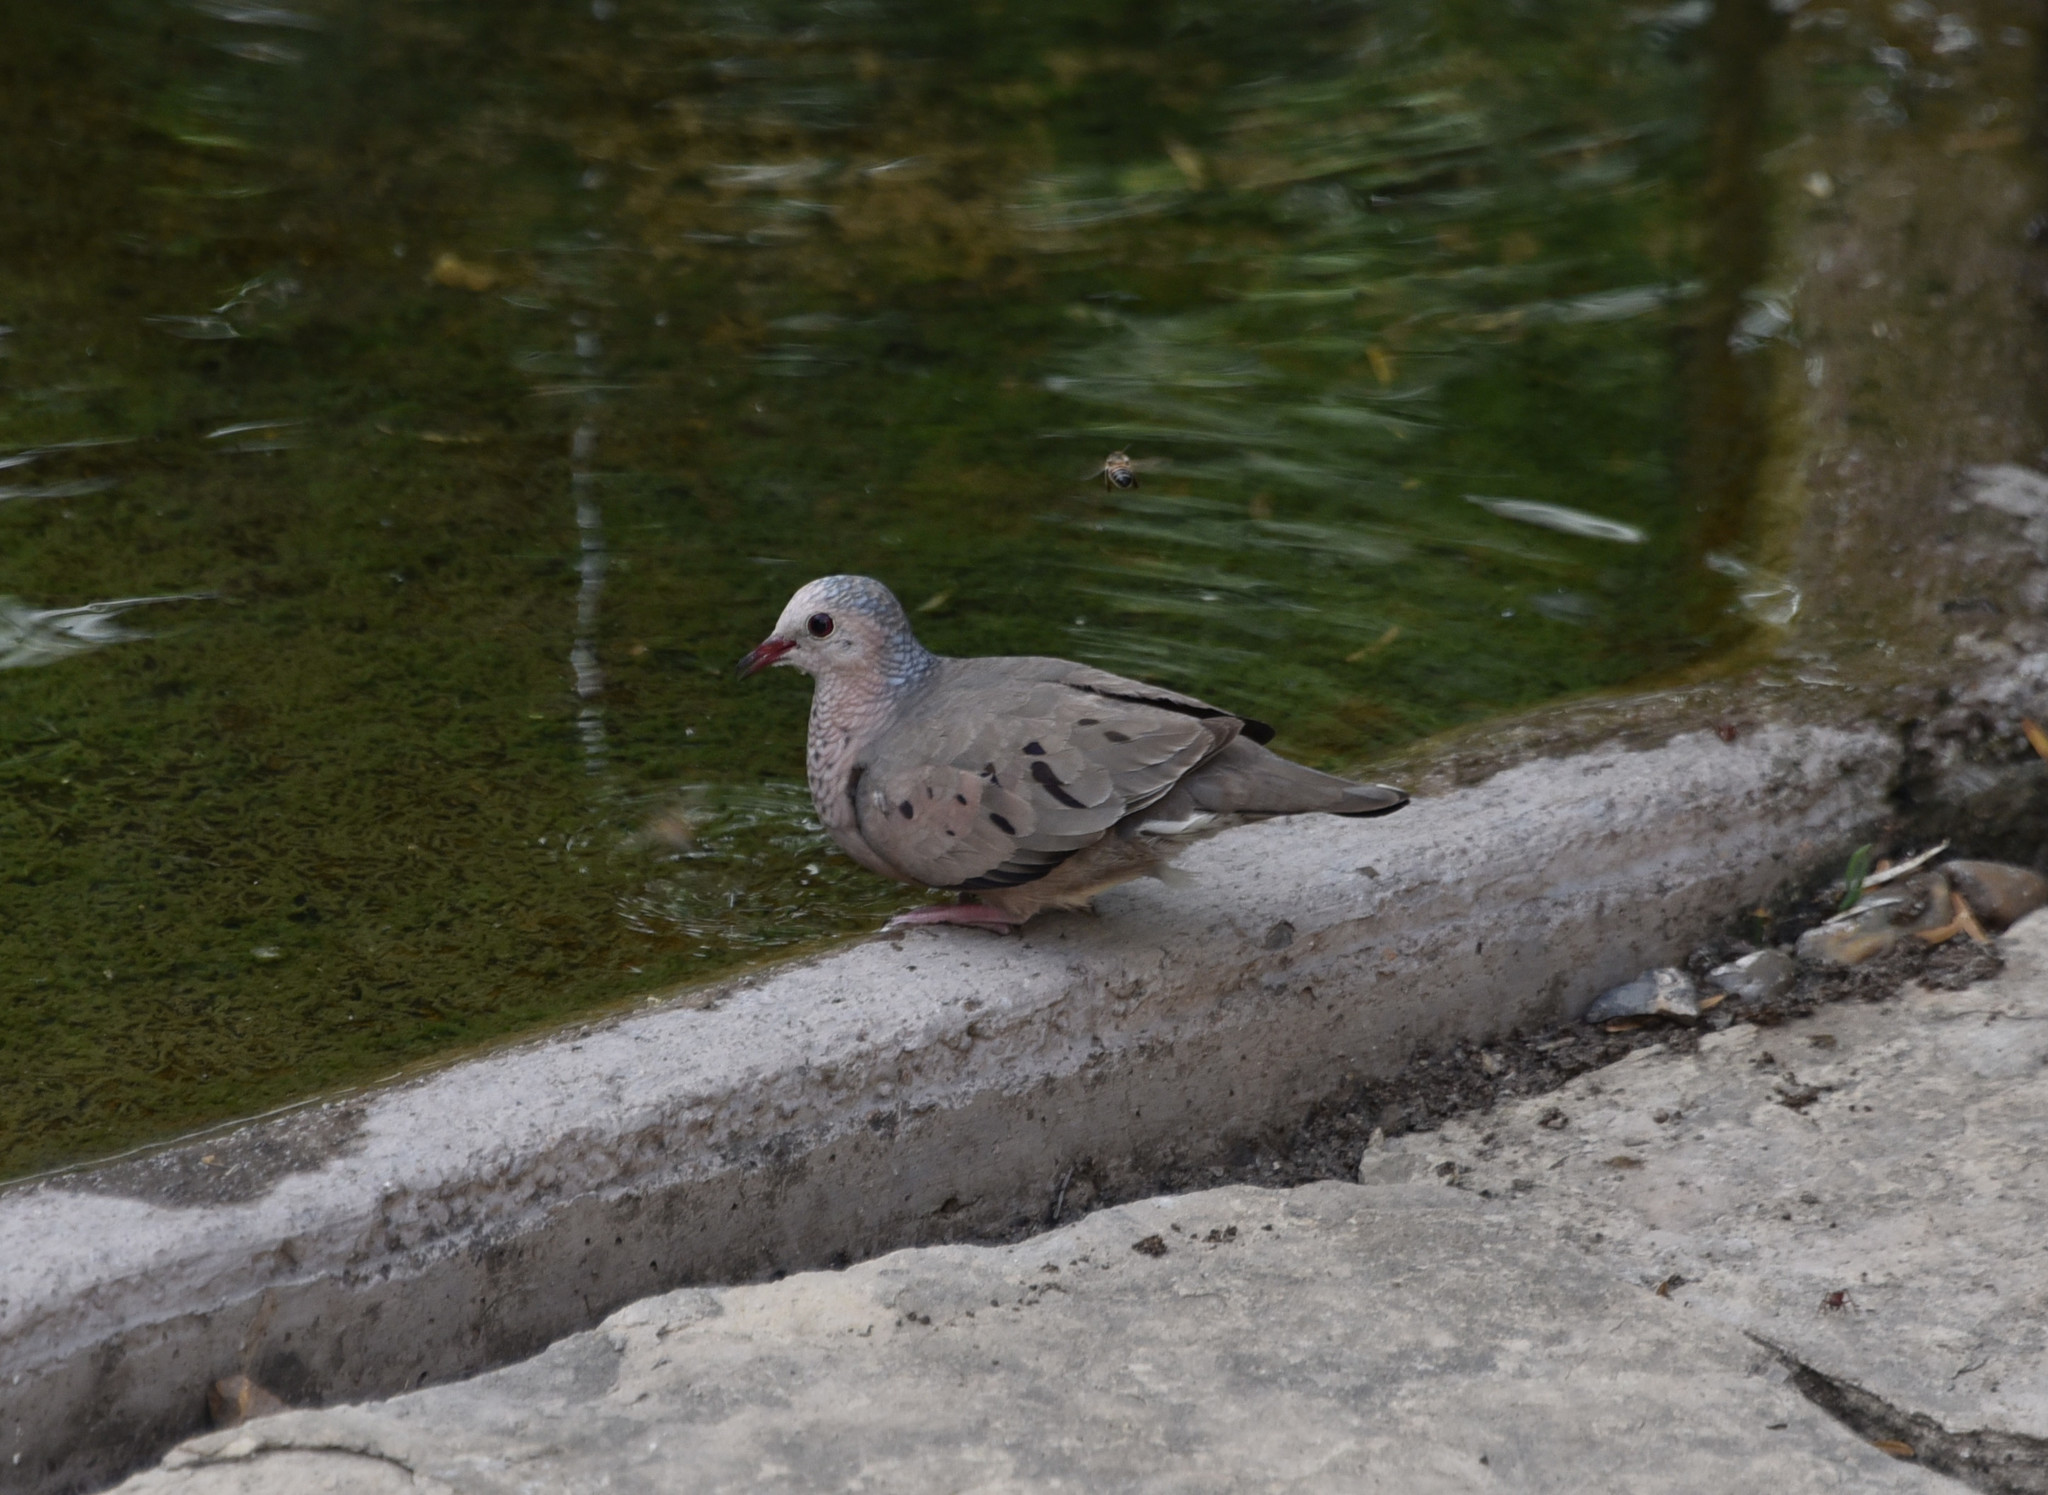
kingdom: Animalia
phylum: Chordata
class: Aves
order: Columbiformes
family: Columbidae
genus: Columbina
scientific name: Columbina passerina
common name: Common ground-dove
